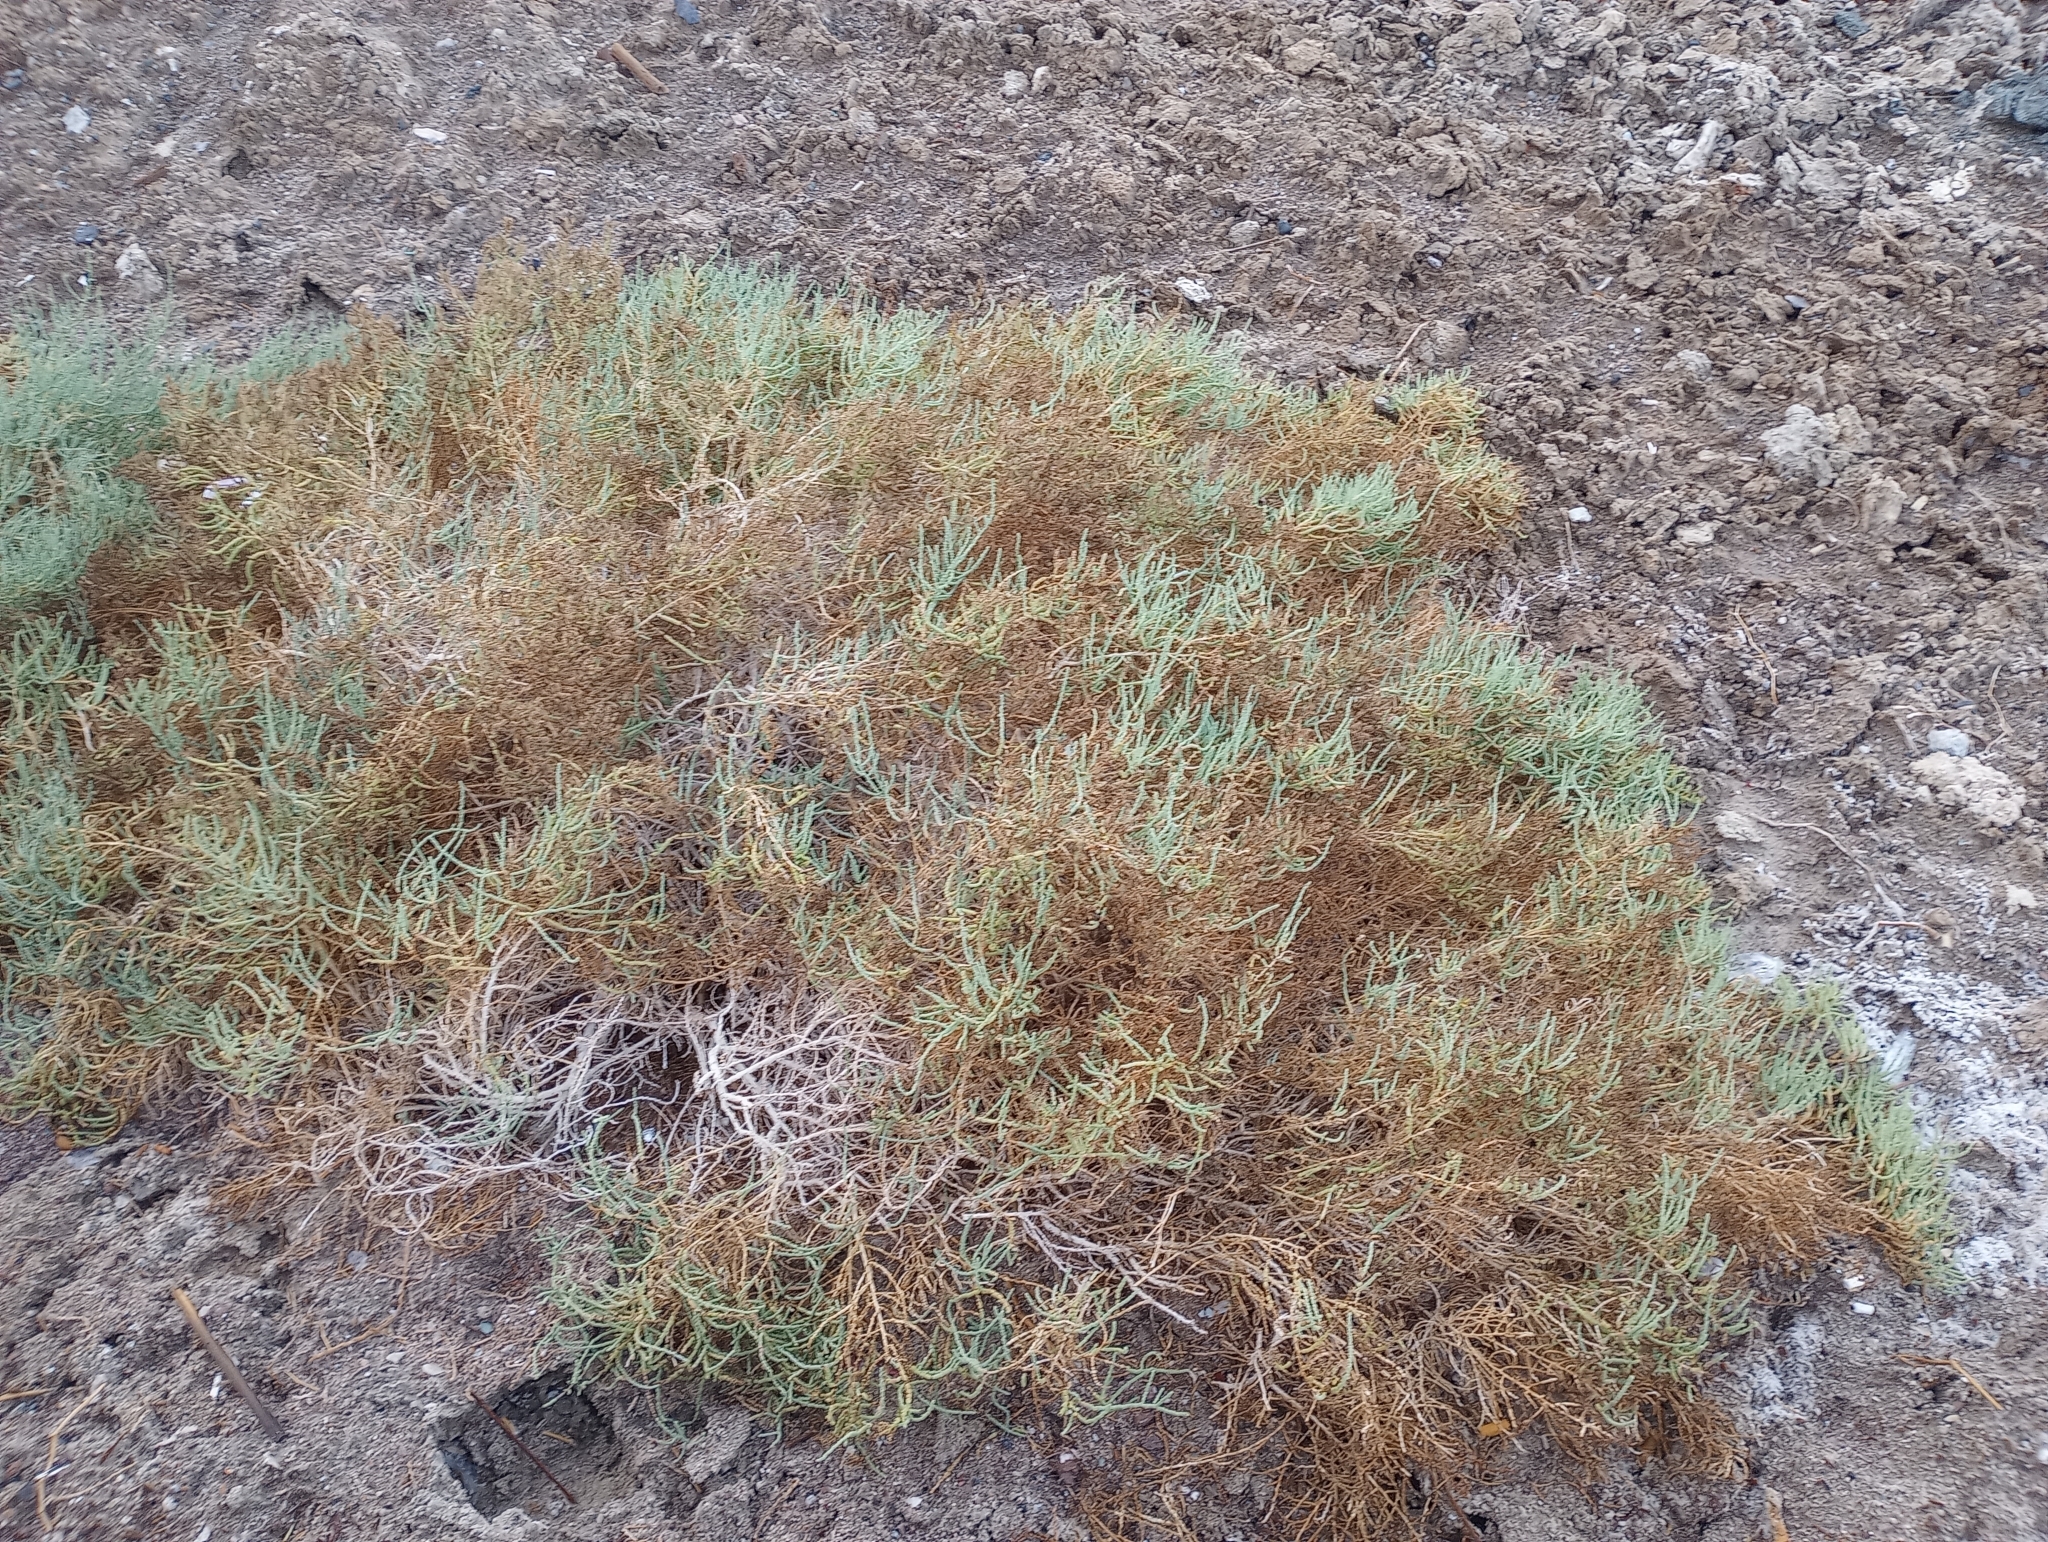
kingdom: Plantae
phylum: Tracheophyta
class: Magnoliopsida
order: Caryophyllales
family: Amaranthaceae
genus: Allenrolfea
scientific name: Allenrolfea occidentalis
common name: Iodine-bush
